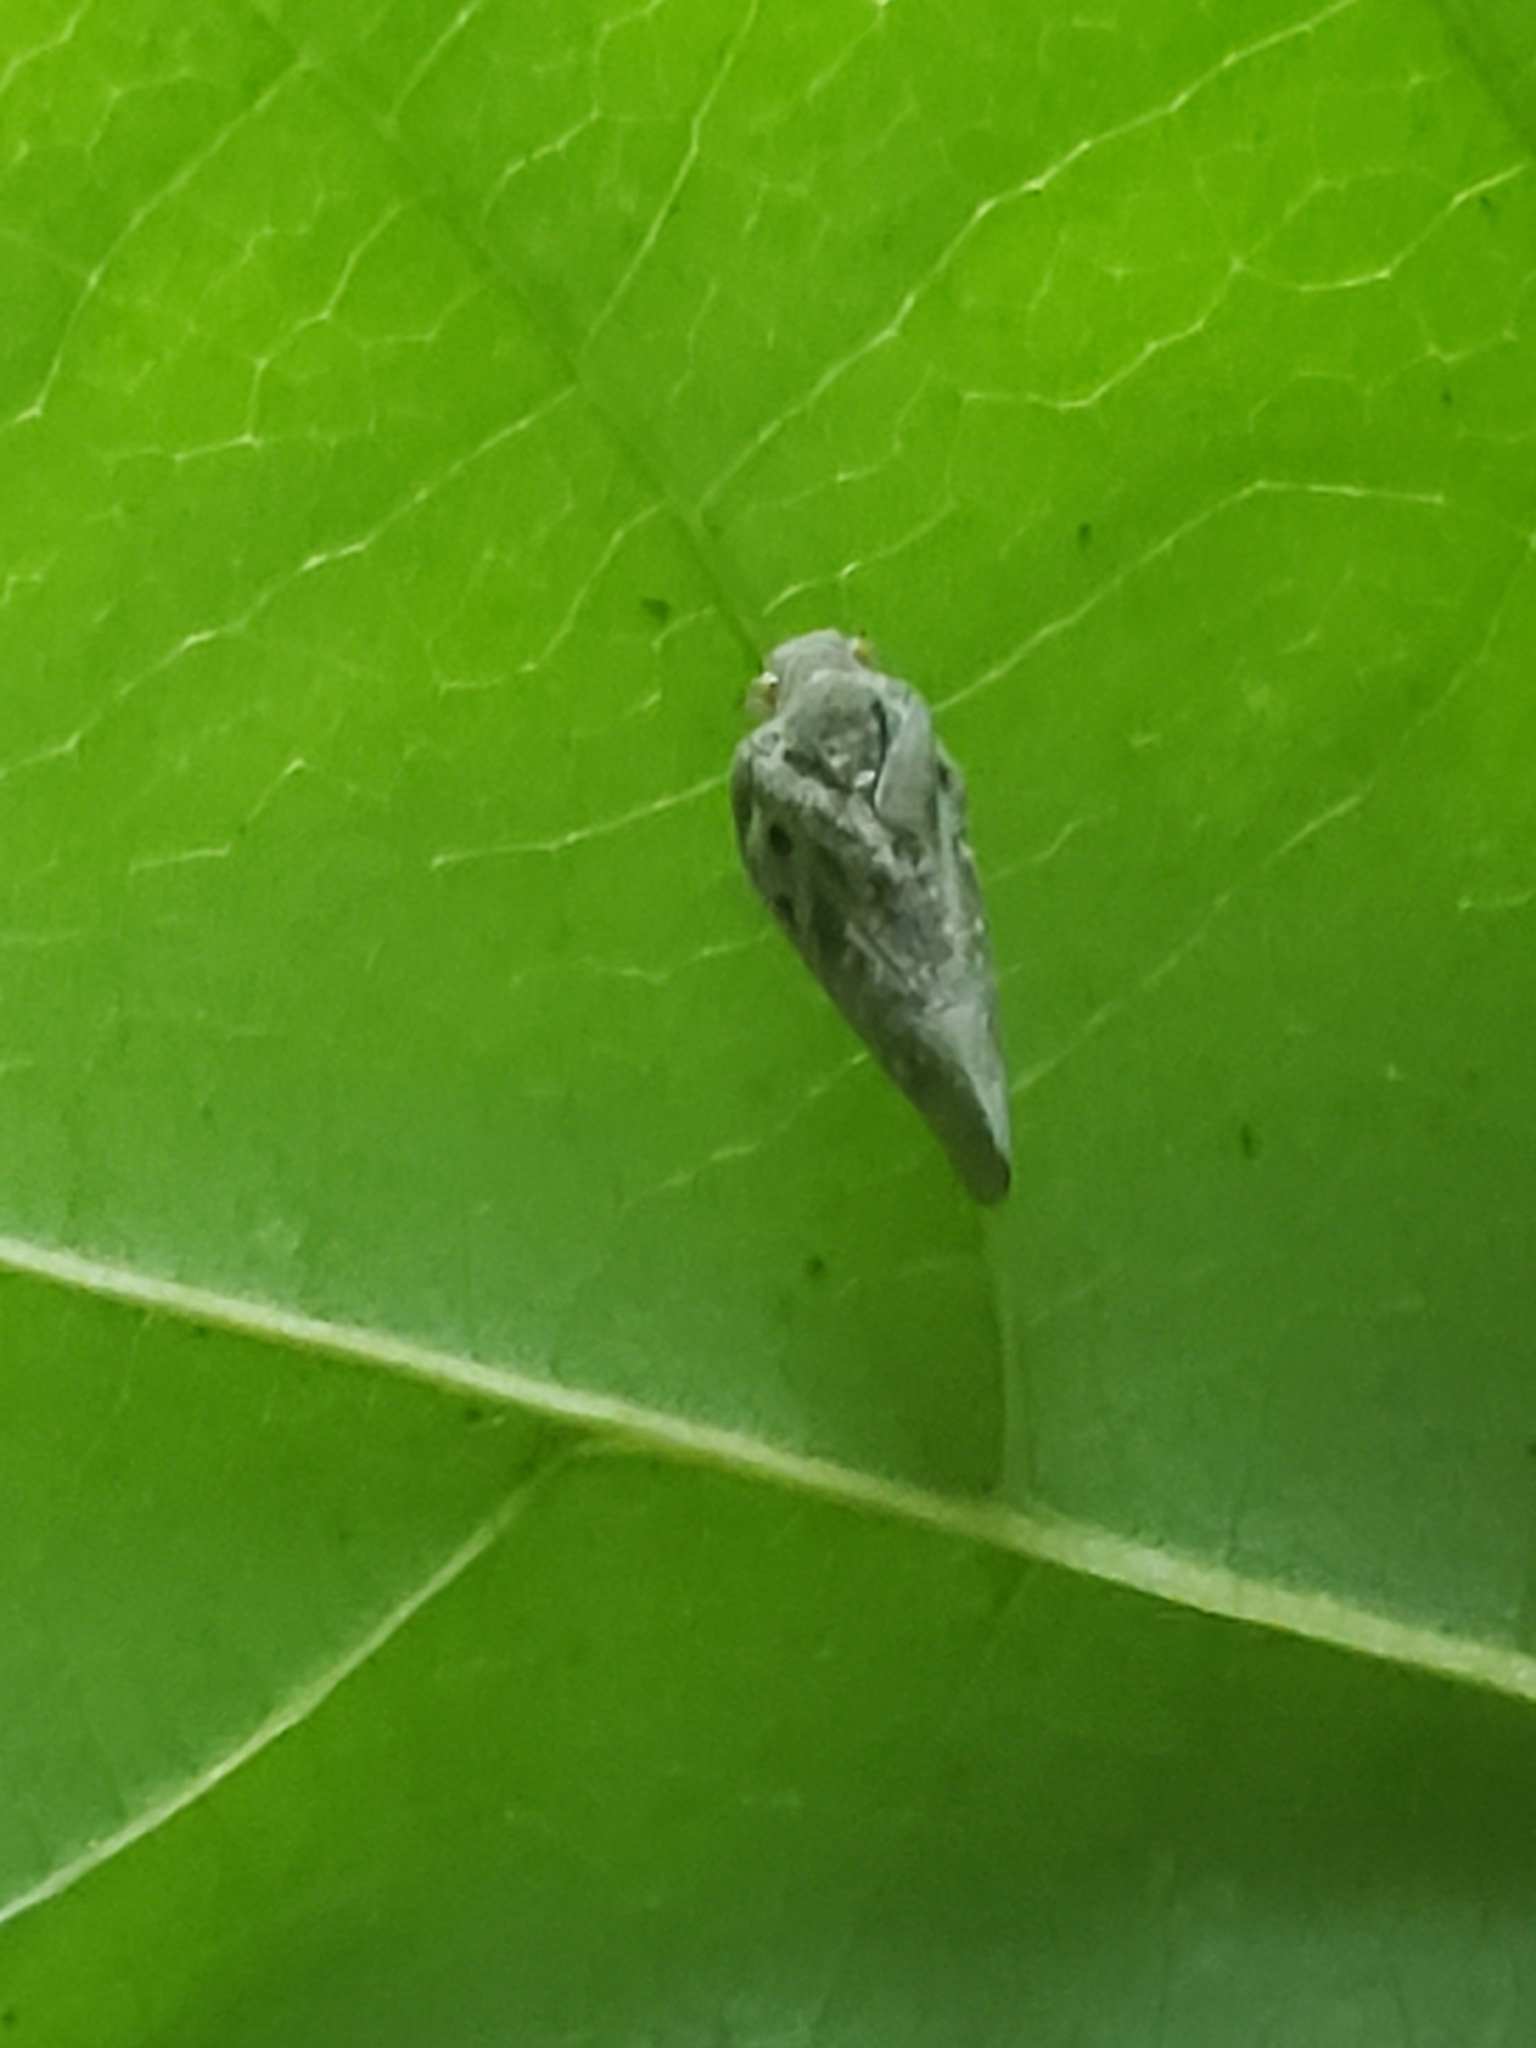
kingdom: Animalia
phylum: Arthropoda
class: Insecta
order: Hemiptera
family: Flatidae
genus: Metcalfa
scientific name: Metcalfa pruinosa
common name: Citrus flatid planthopper
